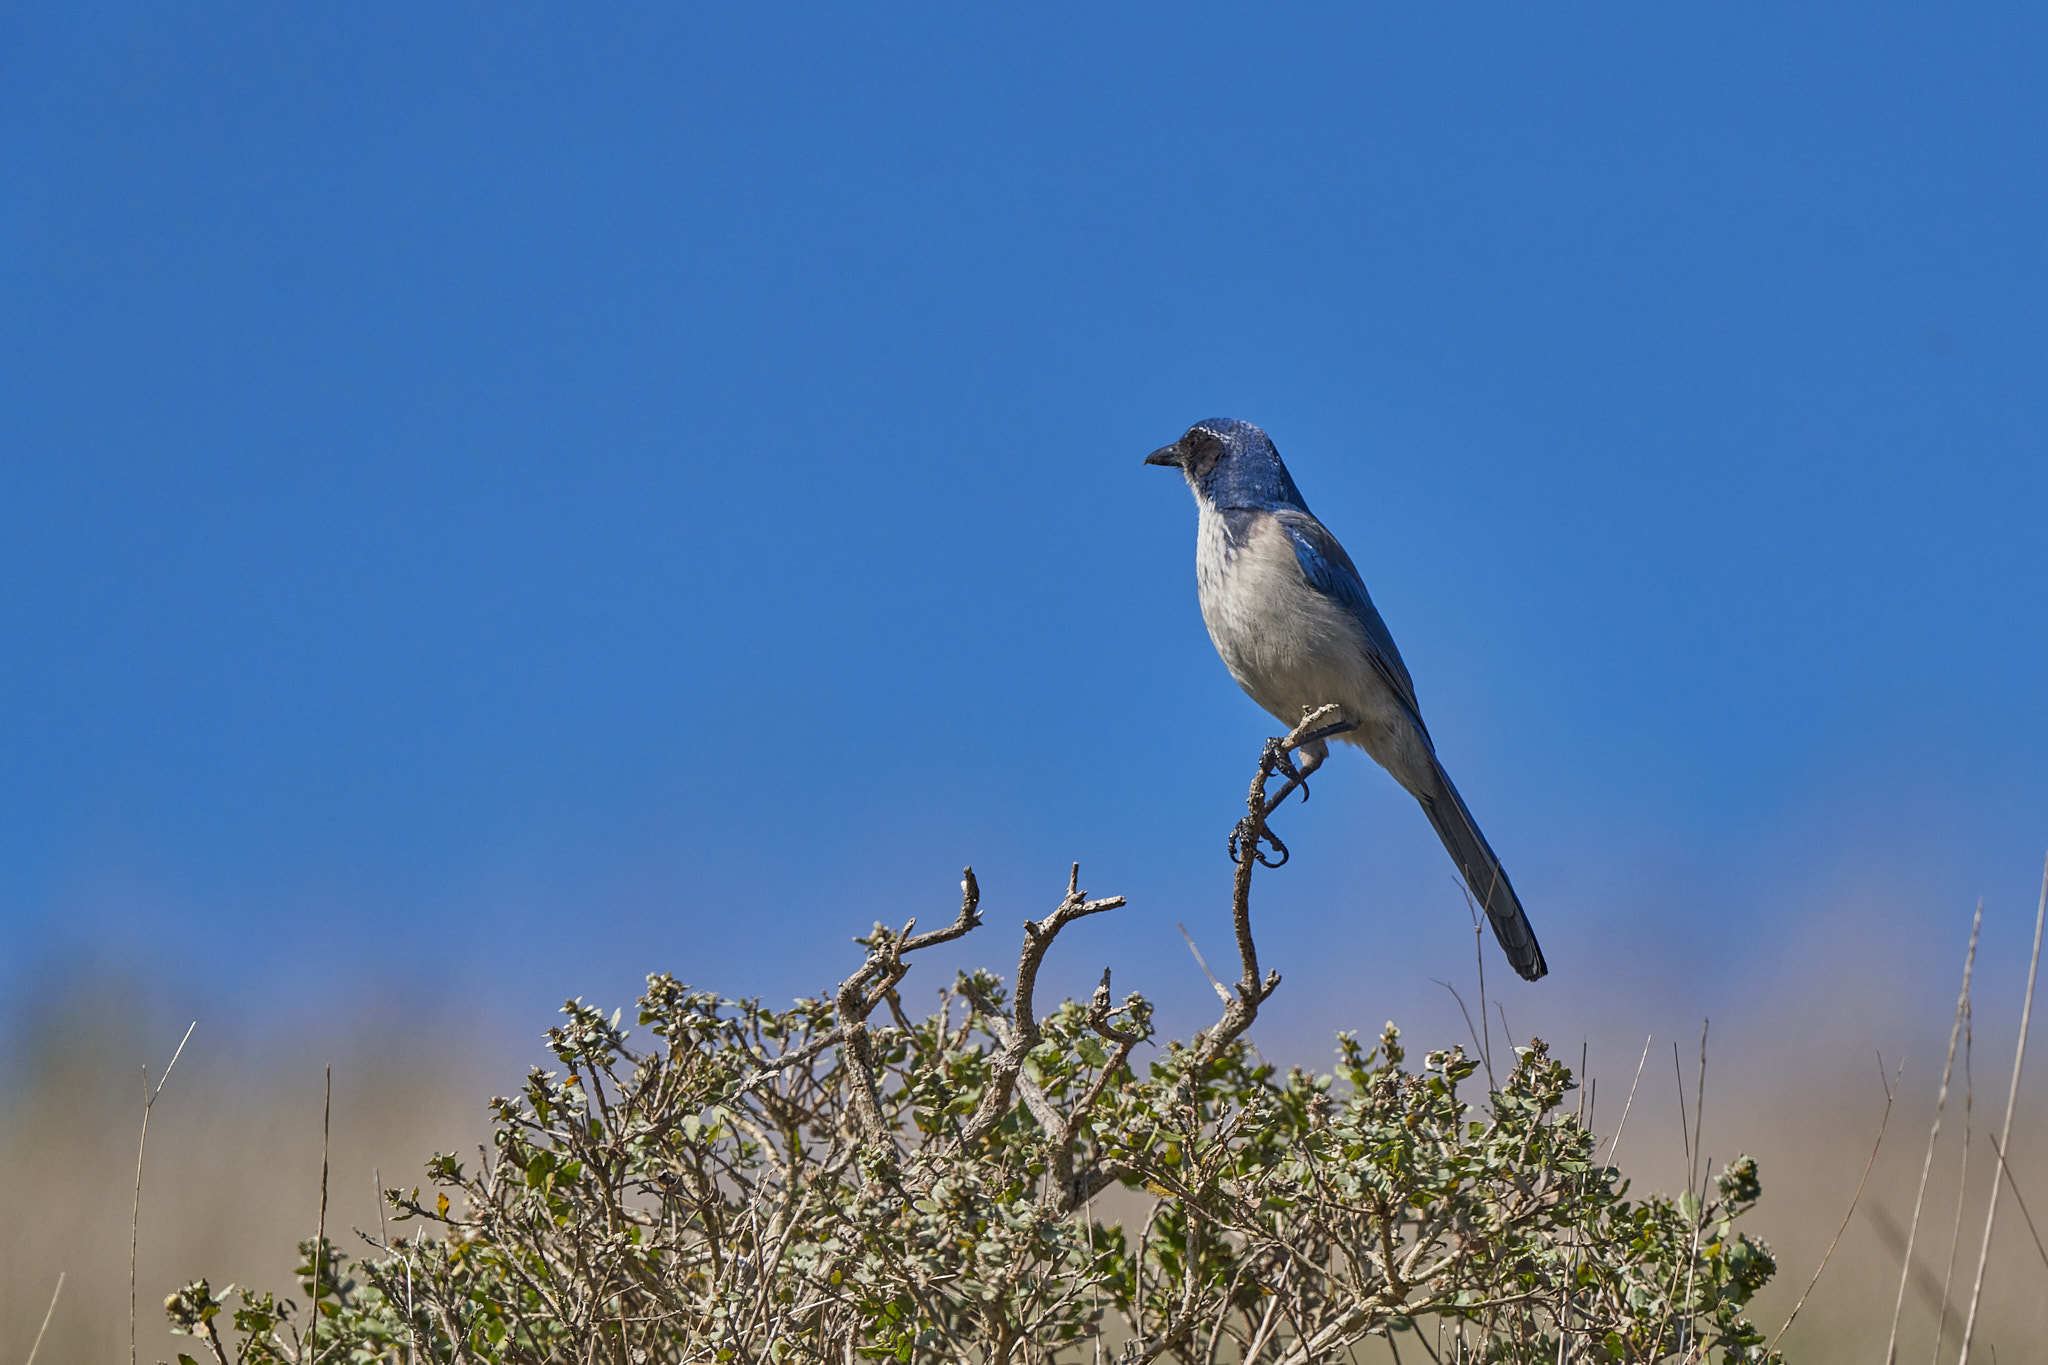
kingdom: Animalia
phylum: Chordata
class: Aves
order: Passeriformes
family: Corvidae
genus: Aphelocoma
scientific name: Aphelocoma californica
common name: California scrub-jay
